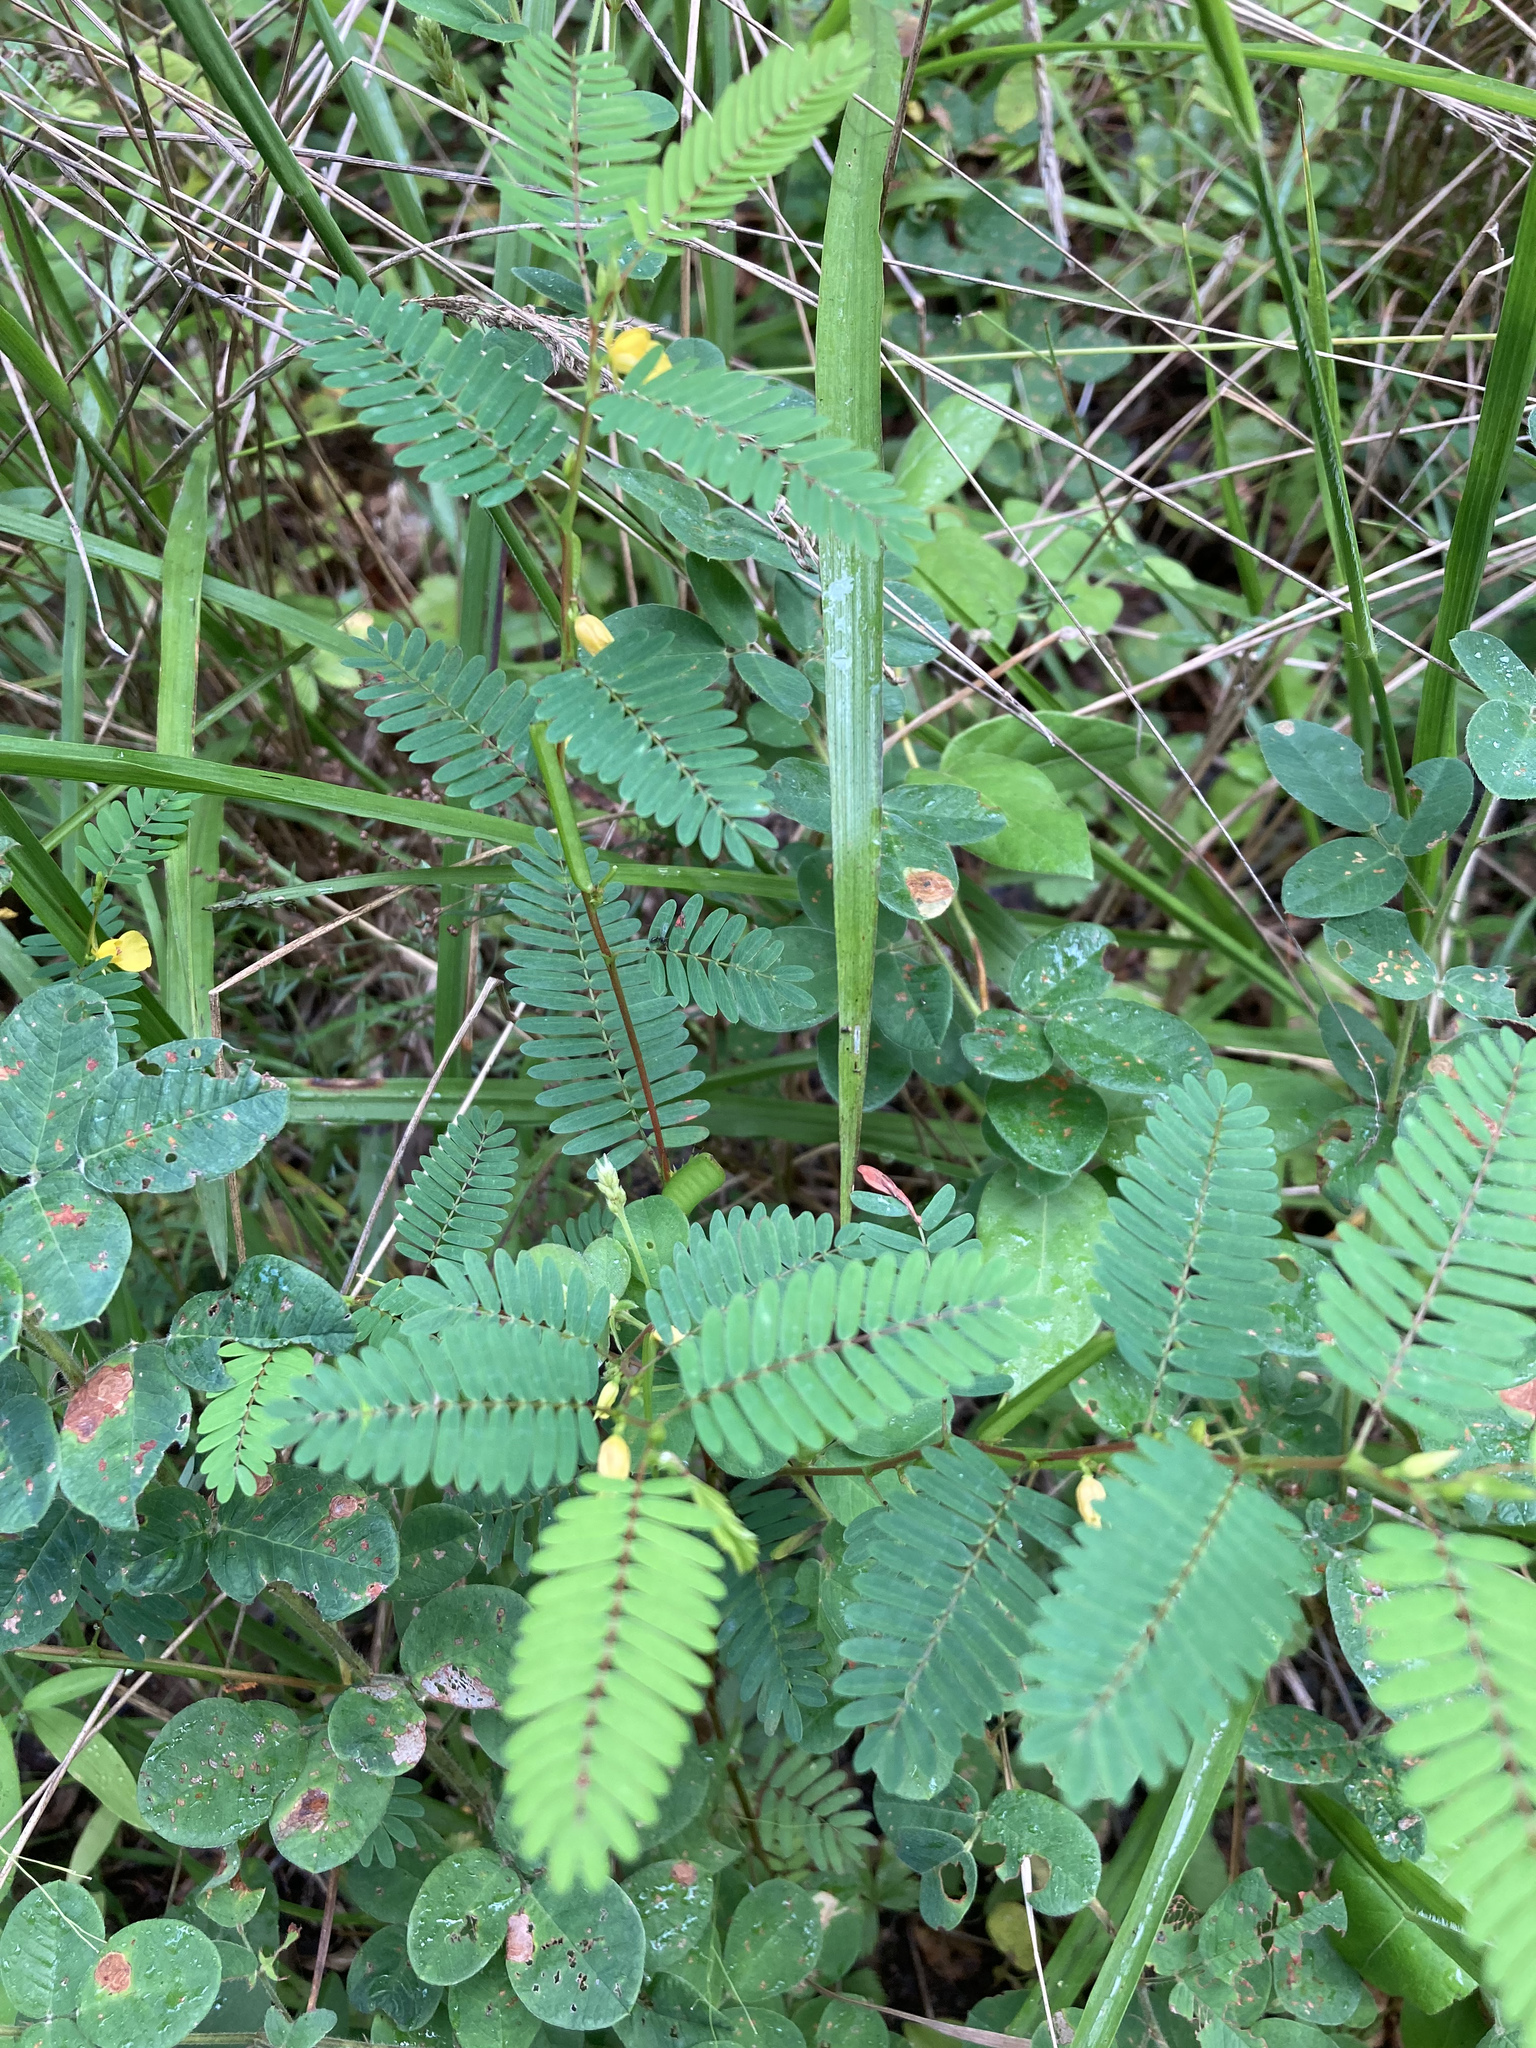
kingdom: Plantae
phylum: Tracheophyta
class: Magnoliopsida
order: Fabales
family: Fabaceae
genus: Chamaecrista
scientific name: Chamaecrista nictitans
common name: Sensitive cassia
